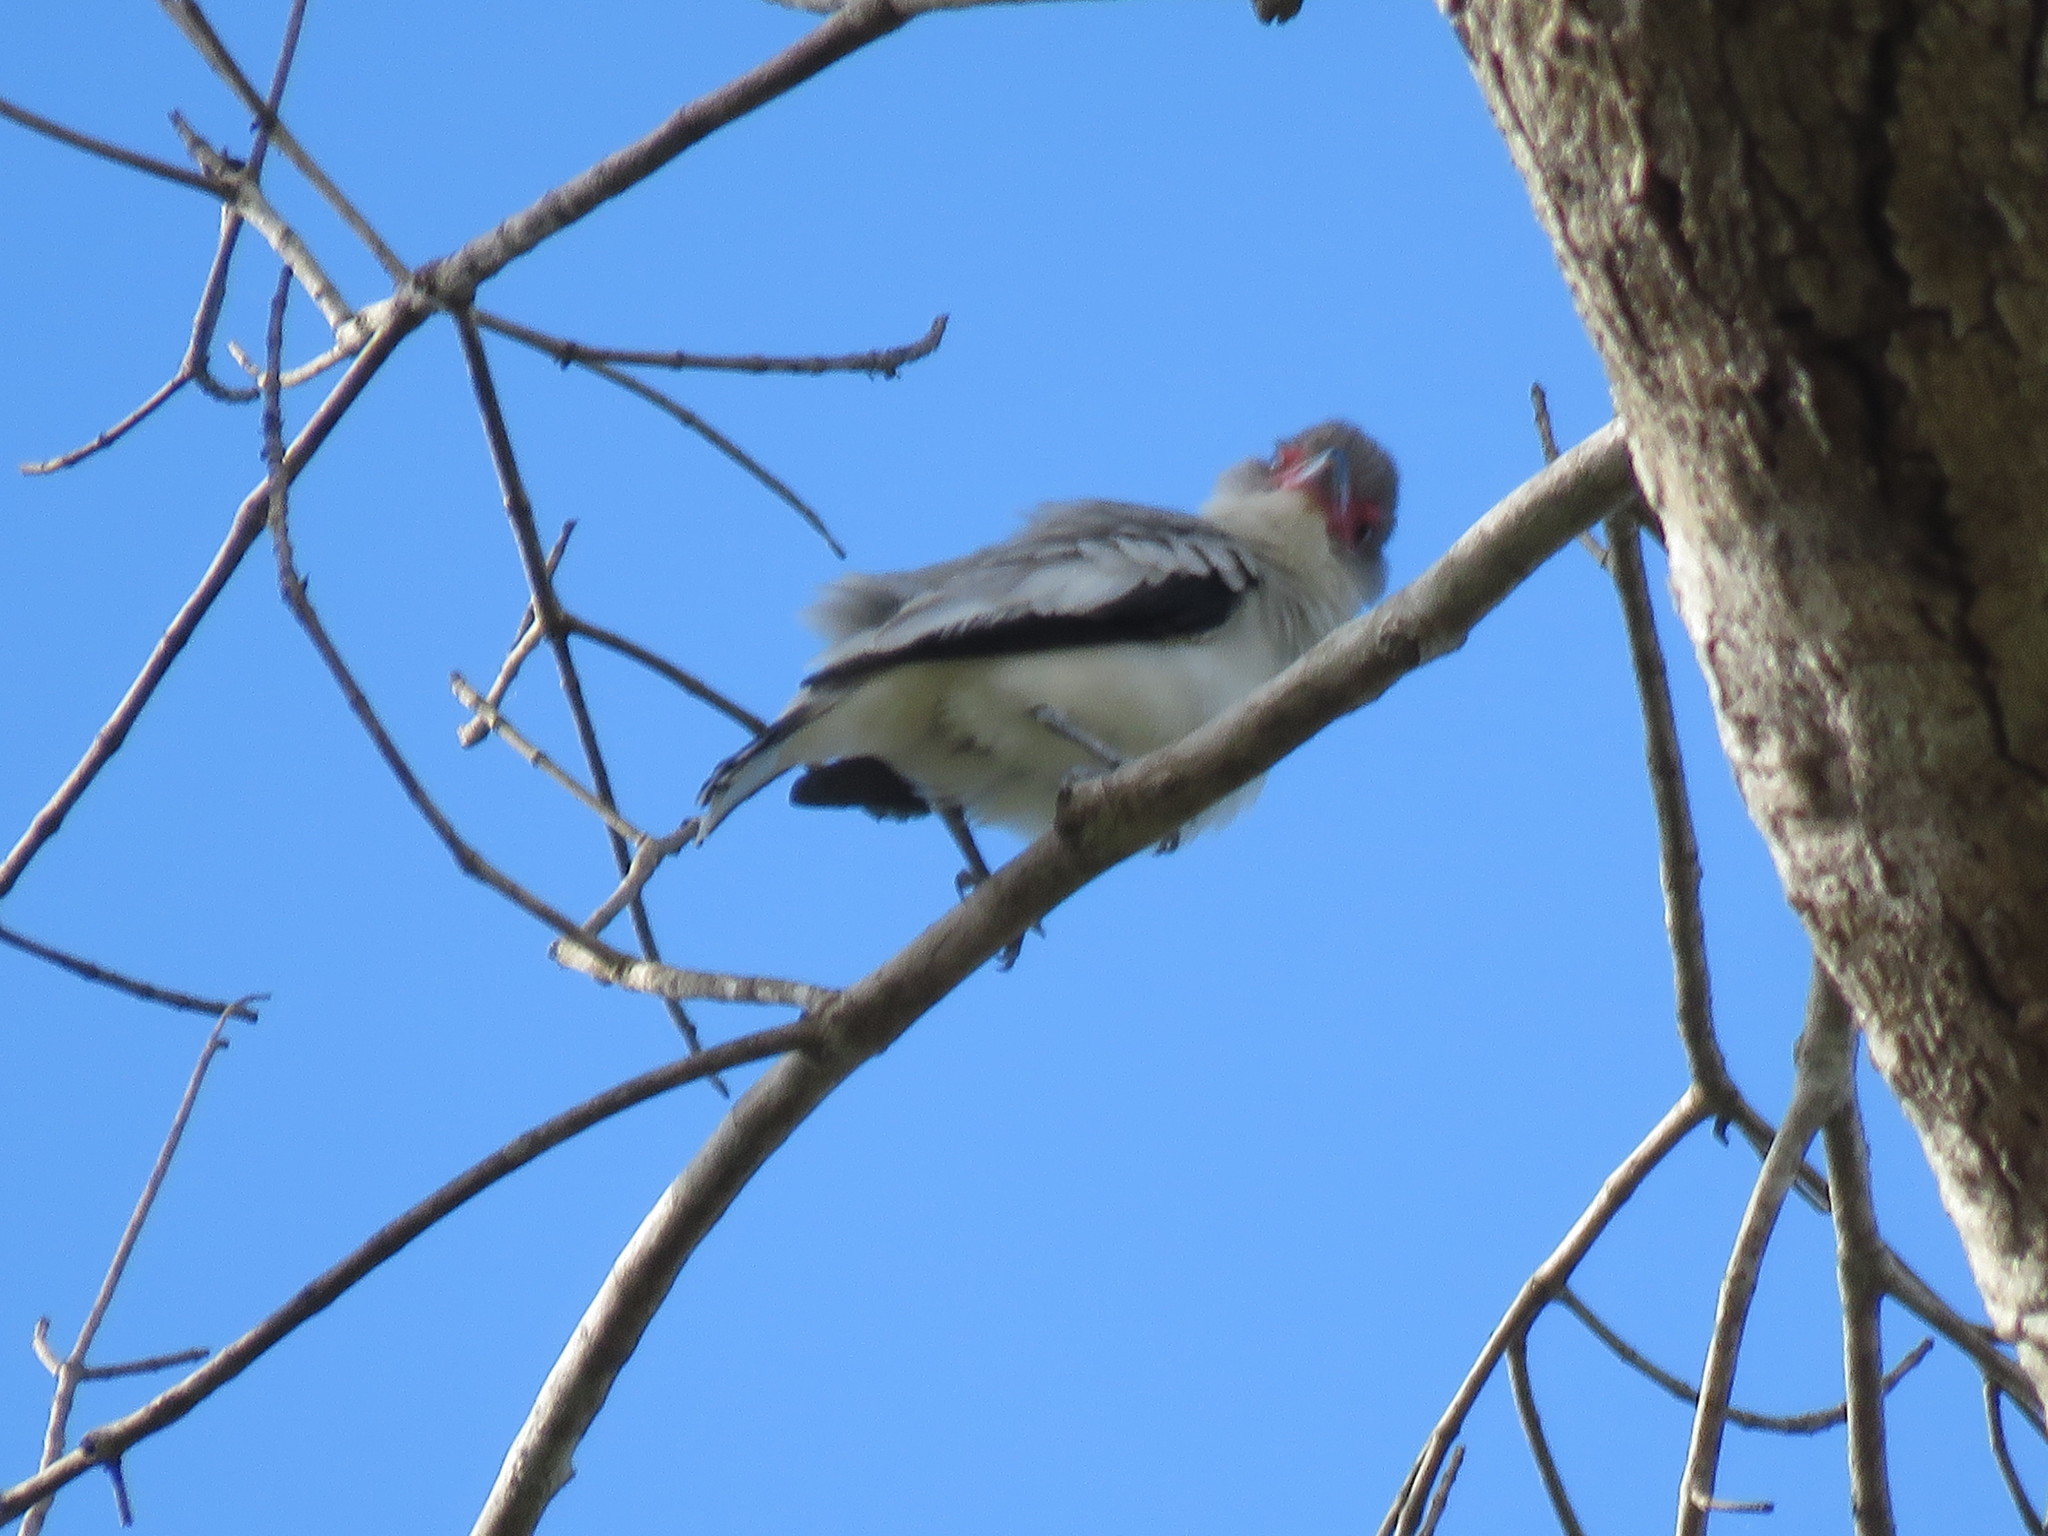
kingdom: Animalia
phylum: Chordata
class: Aves
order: Passeriformes
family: Cotingidae
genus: Tityra
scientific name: Tityra semifasciata
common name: Masked tityra
